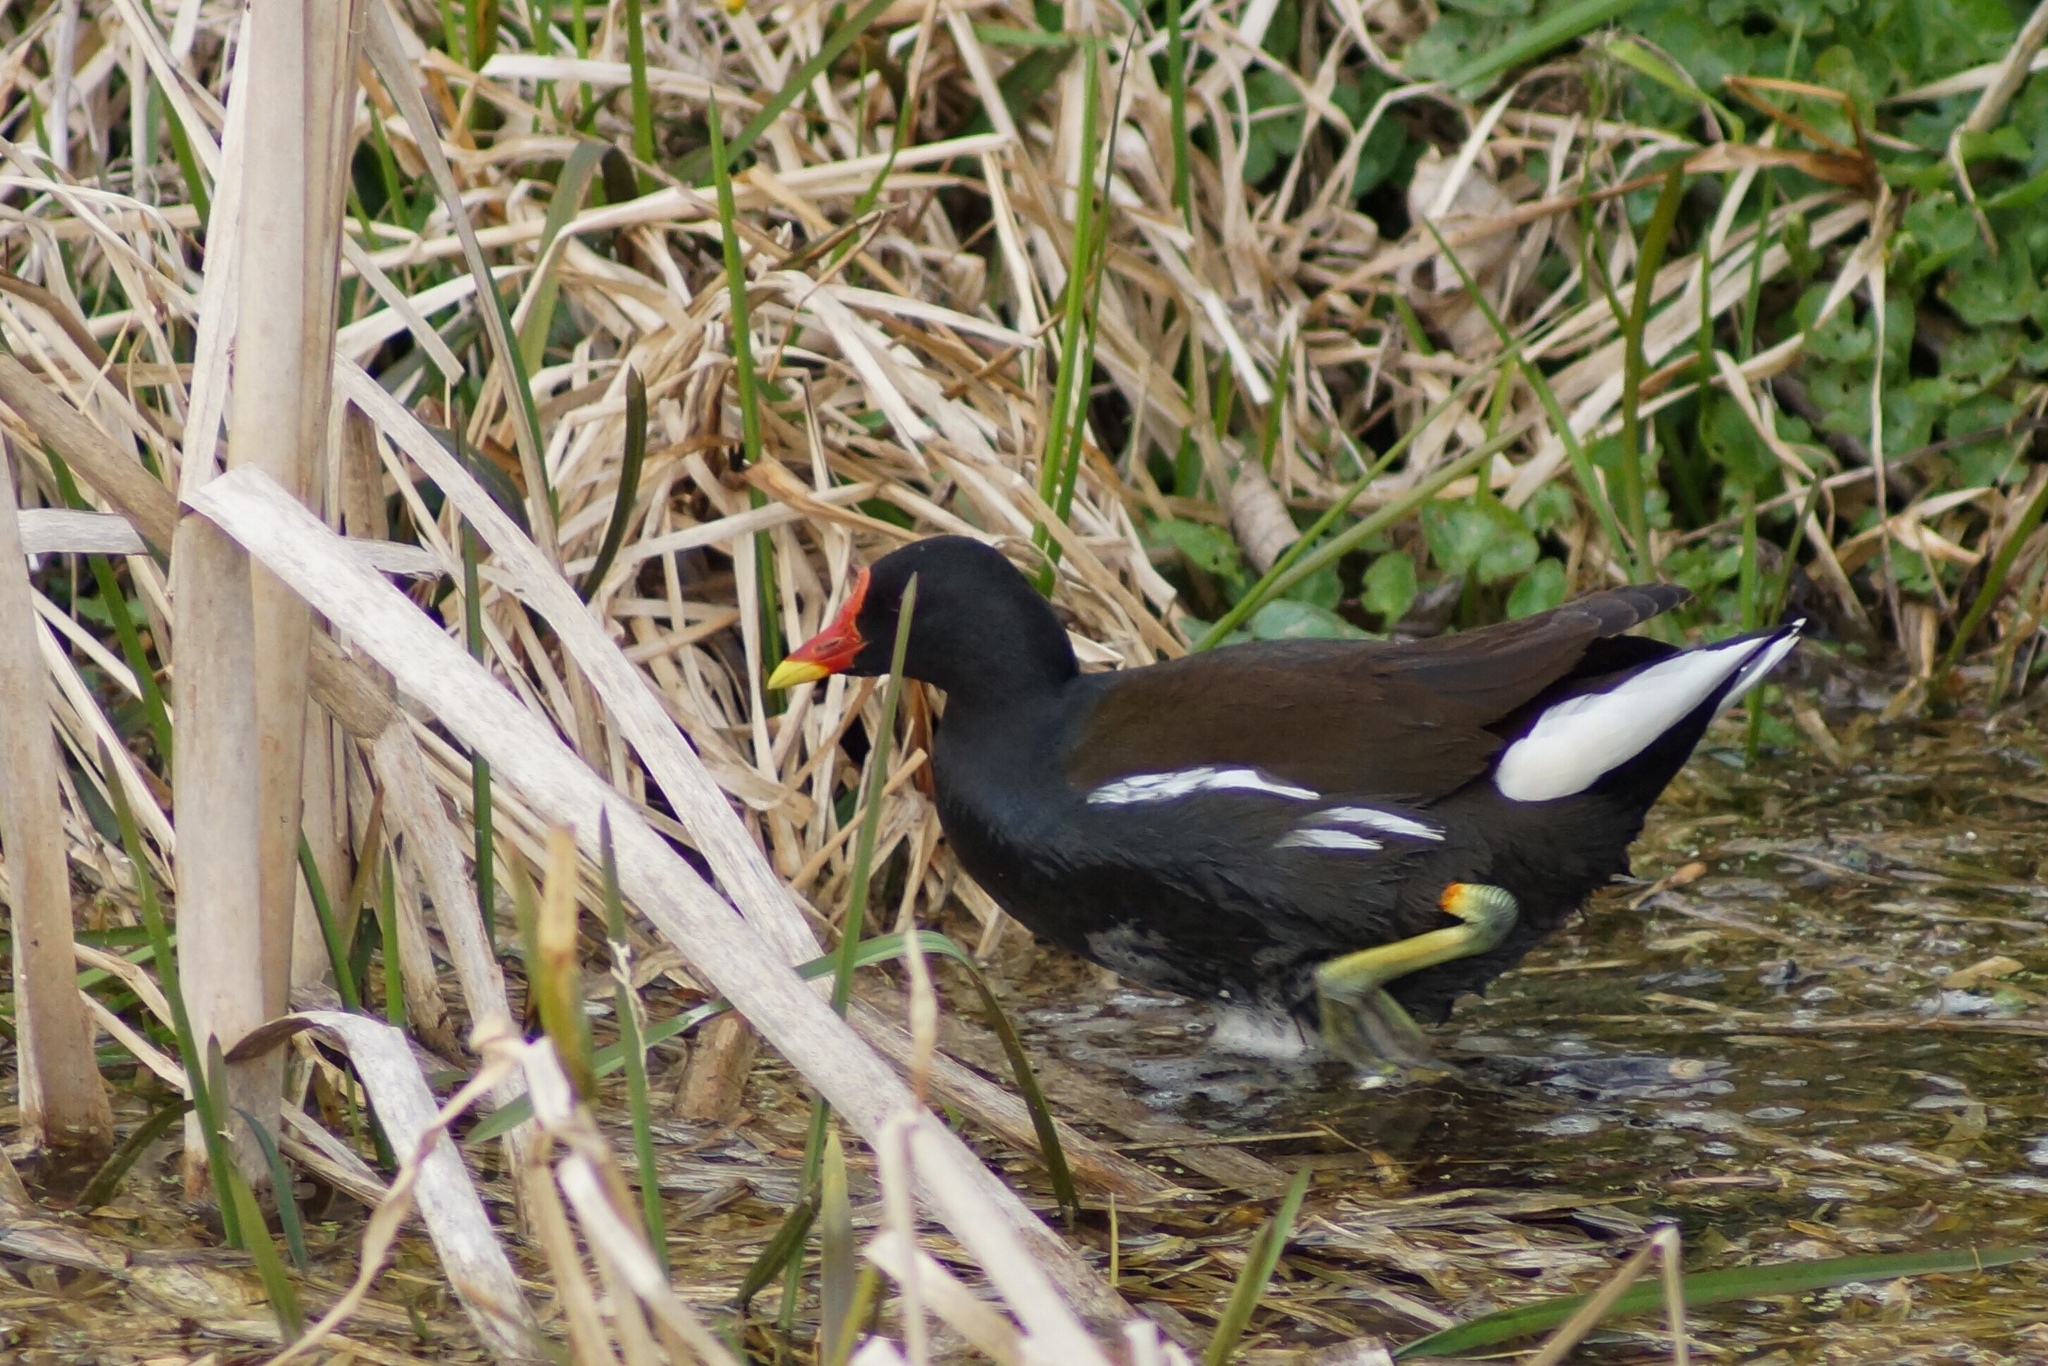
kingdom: Animalia
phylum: Chordata
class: Aves
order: Gruiformes
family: Rallidae
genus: Gallinula
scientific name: Gallinula chloropus
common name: Common moorhen
